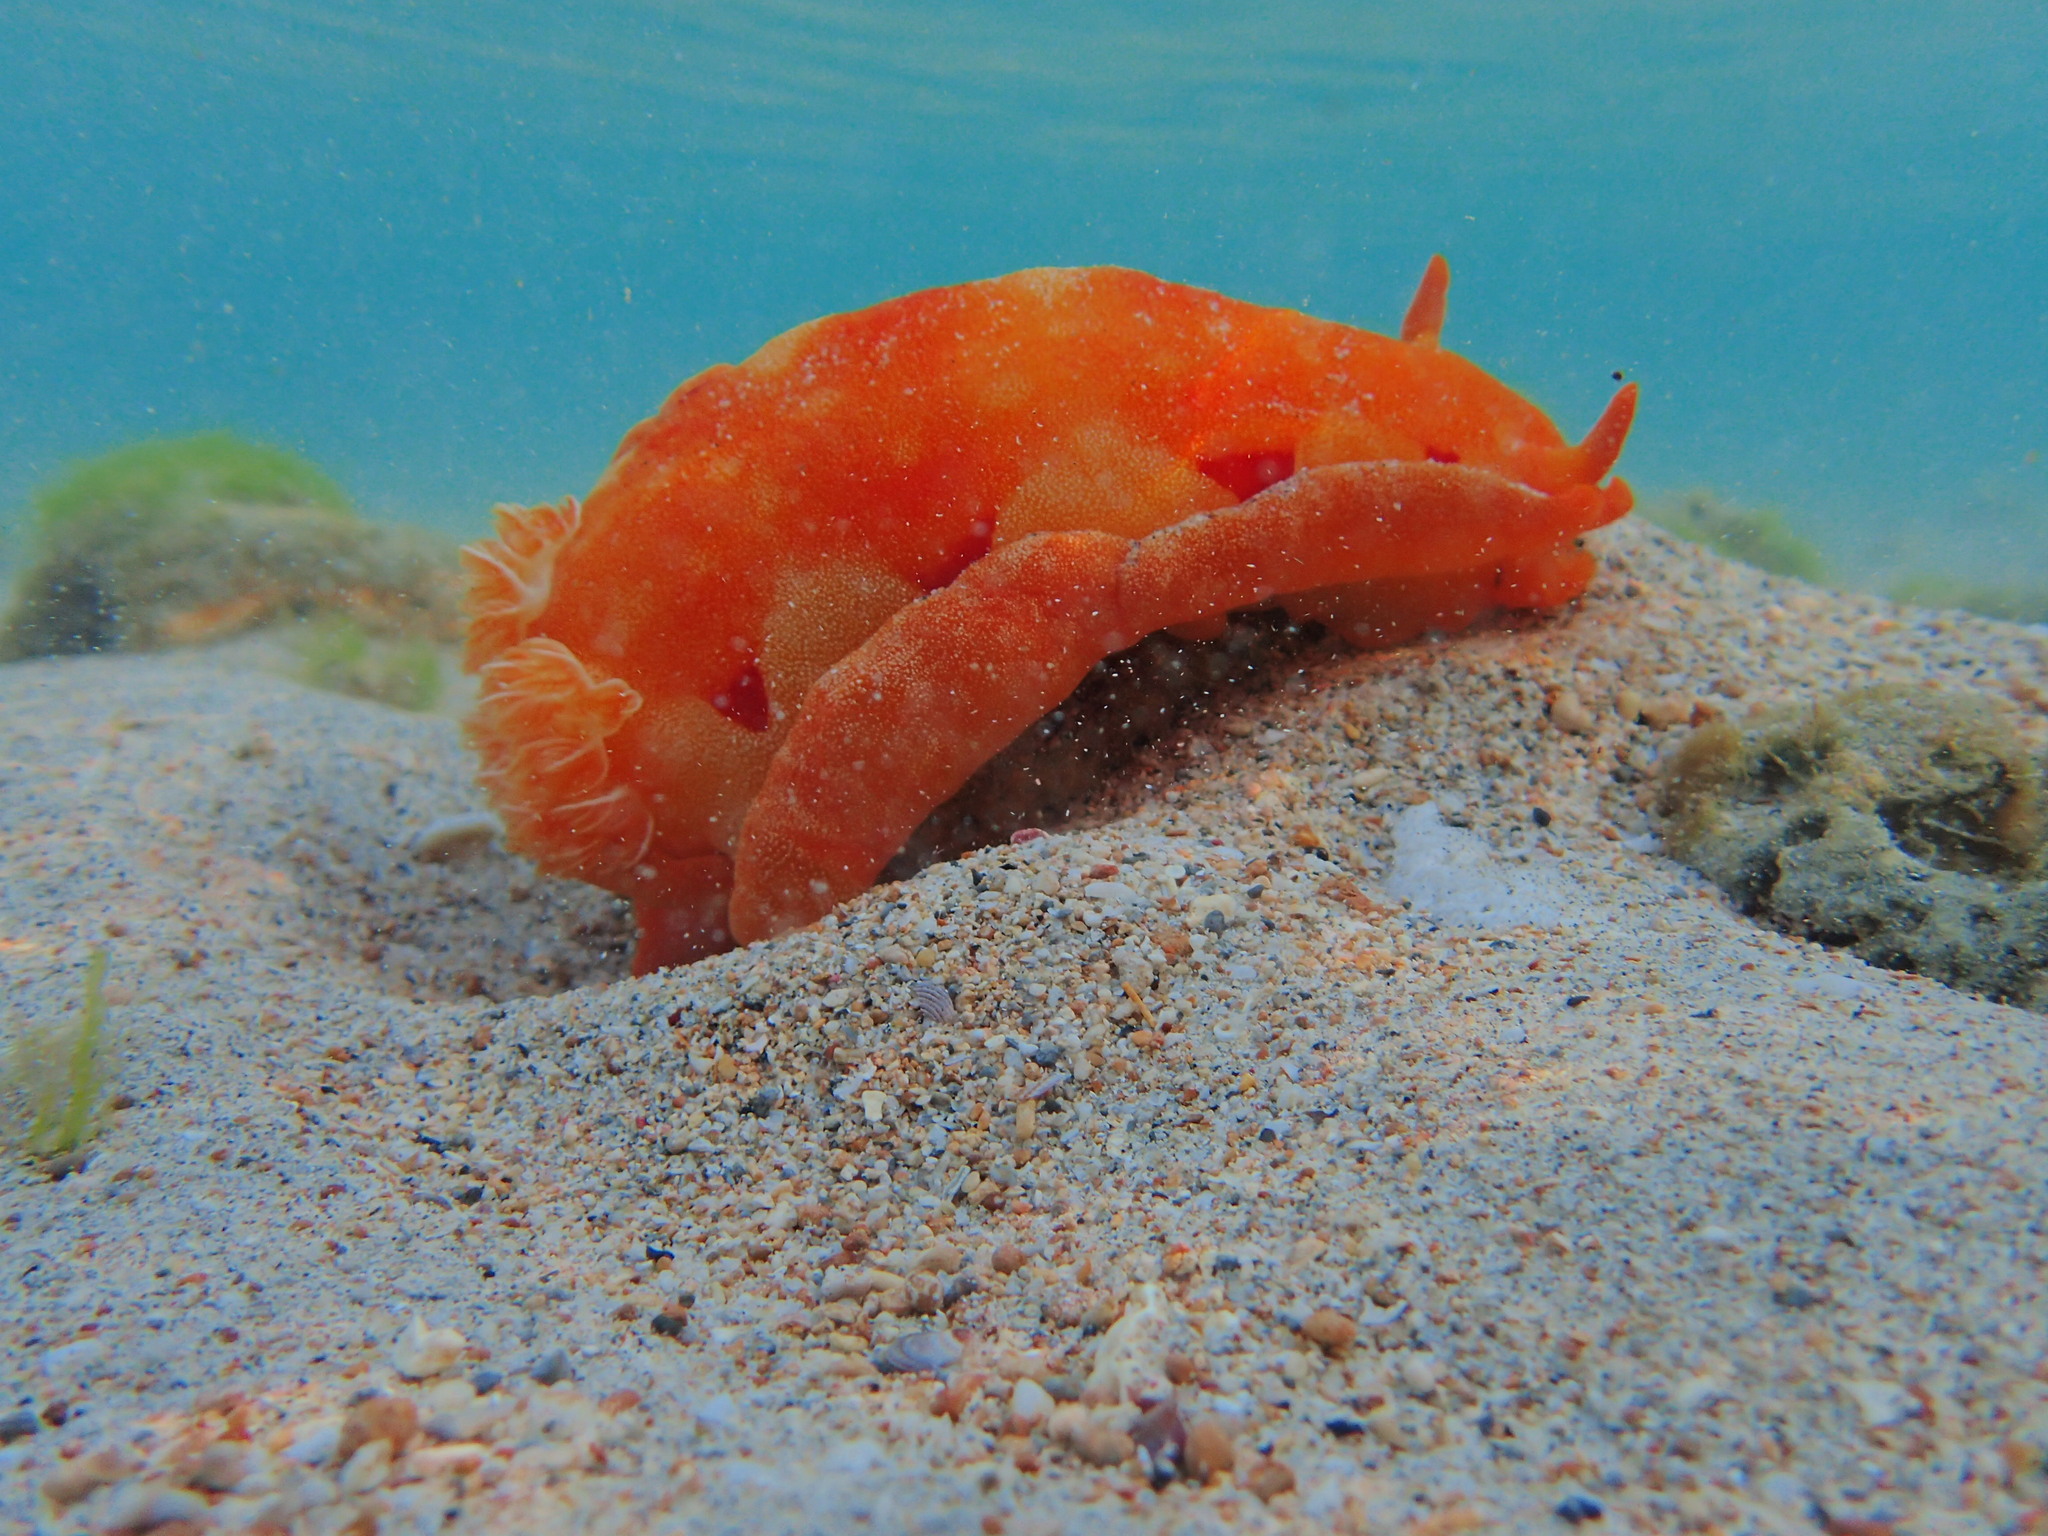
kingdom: Animalia
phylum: Mollusca
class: Gastropoda
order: Nudibranchia
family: Hexabranchidae
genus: Hexabranchus
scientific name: Hexabranchus sanguineus
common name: Spanish dancer
